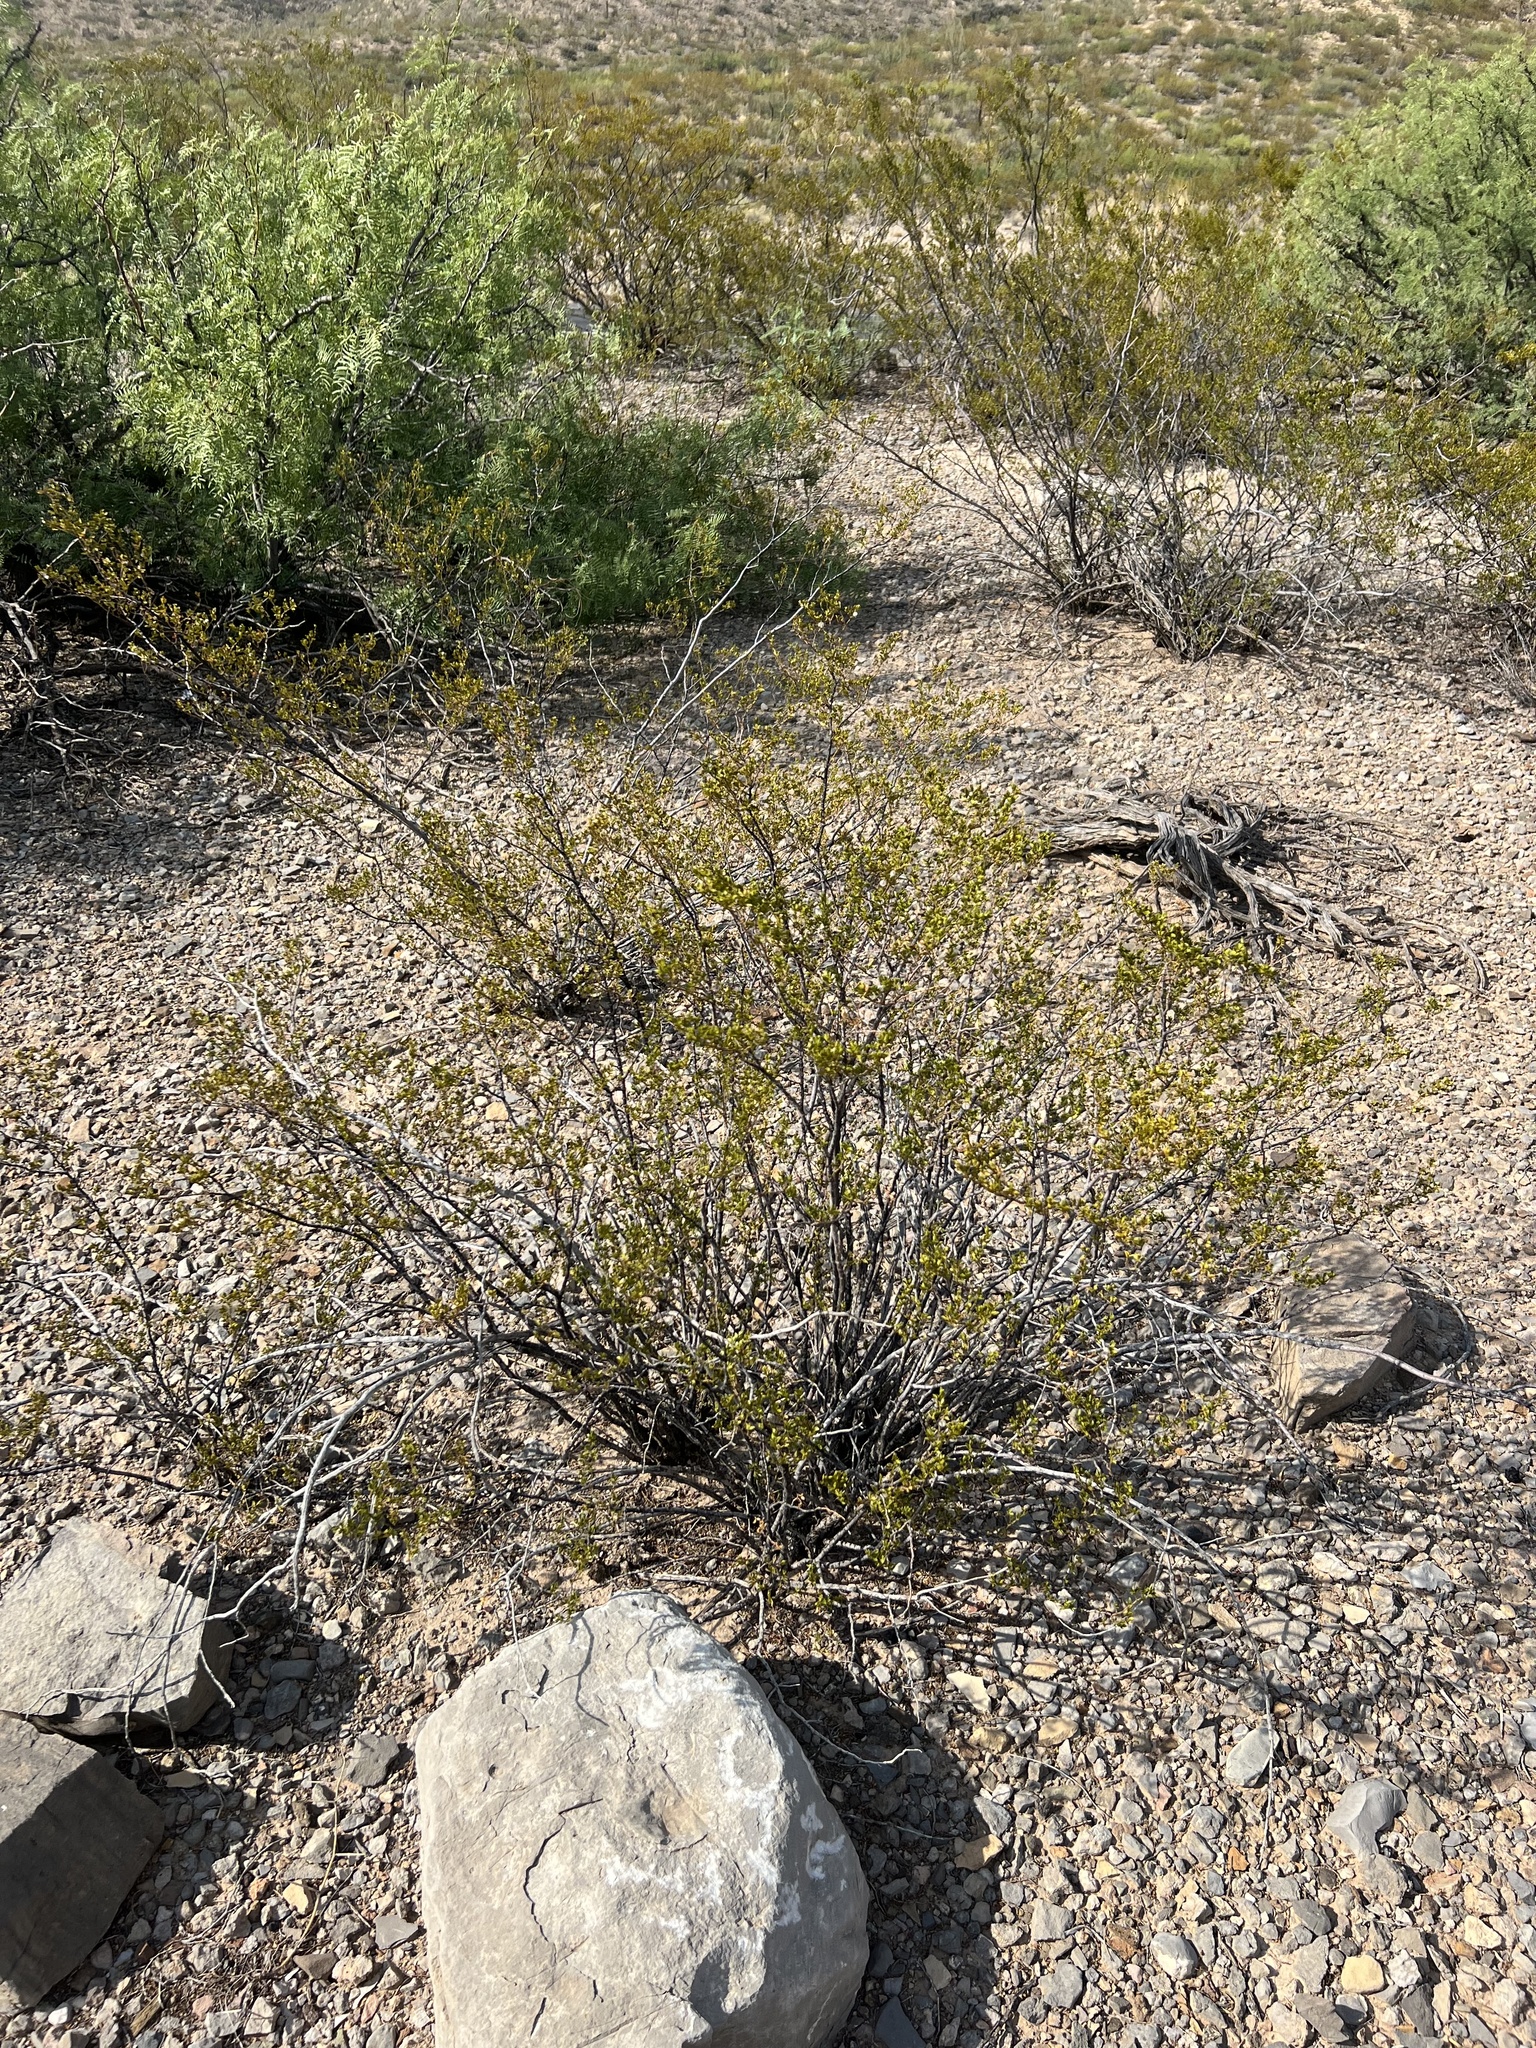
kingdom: Plantae
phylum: Tracheophyta
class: Magnoliopsida
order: Zygophyllales
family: Zygophyllaceae
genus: Larrea
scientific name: Larrea tridentata
